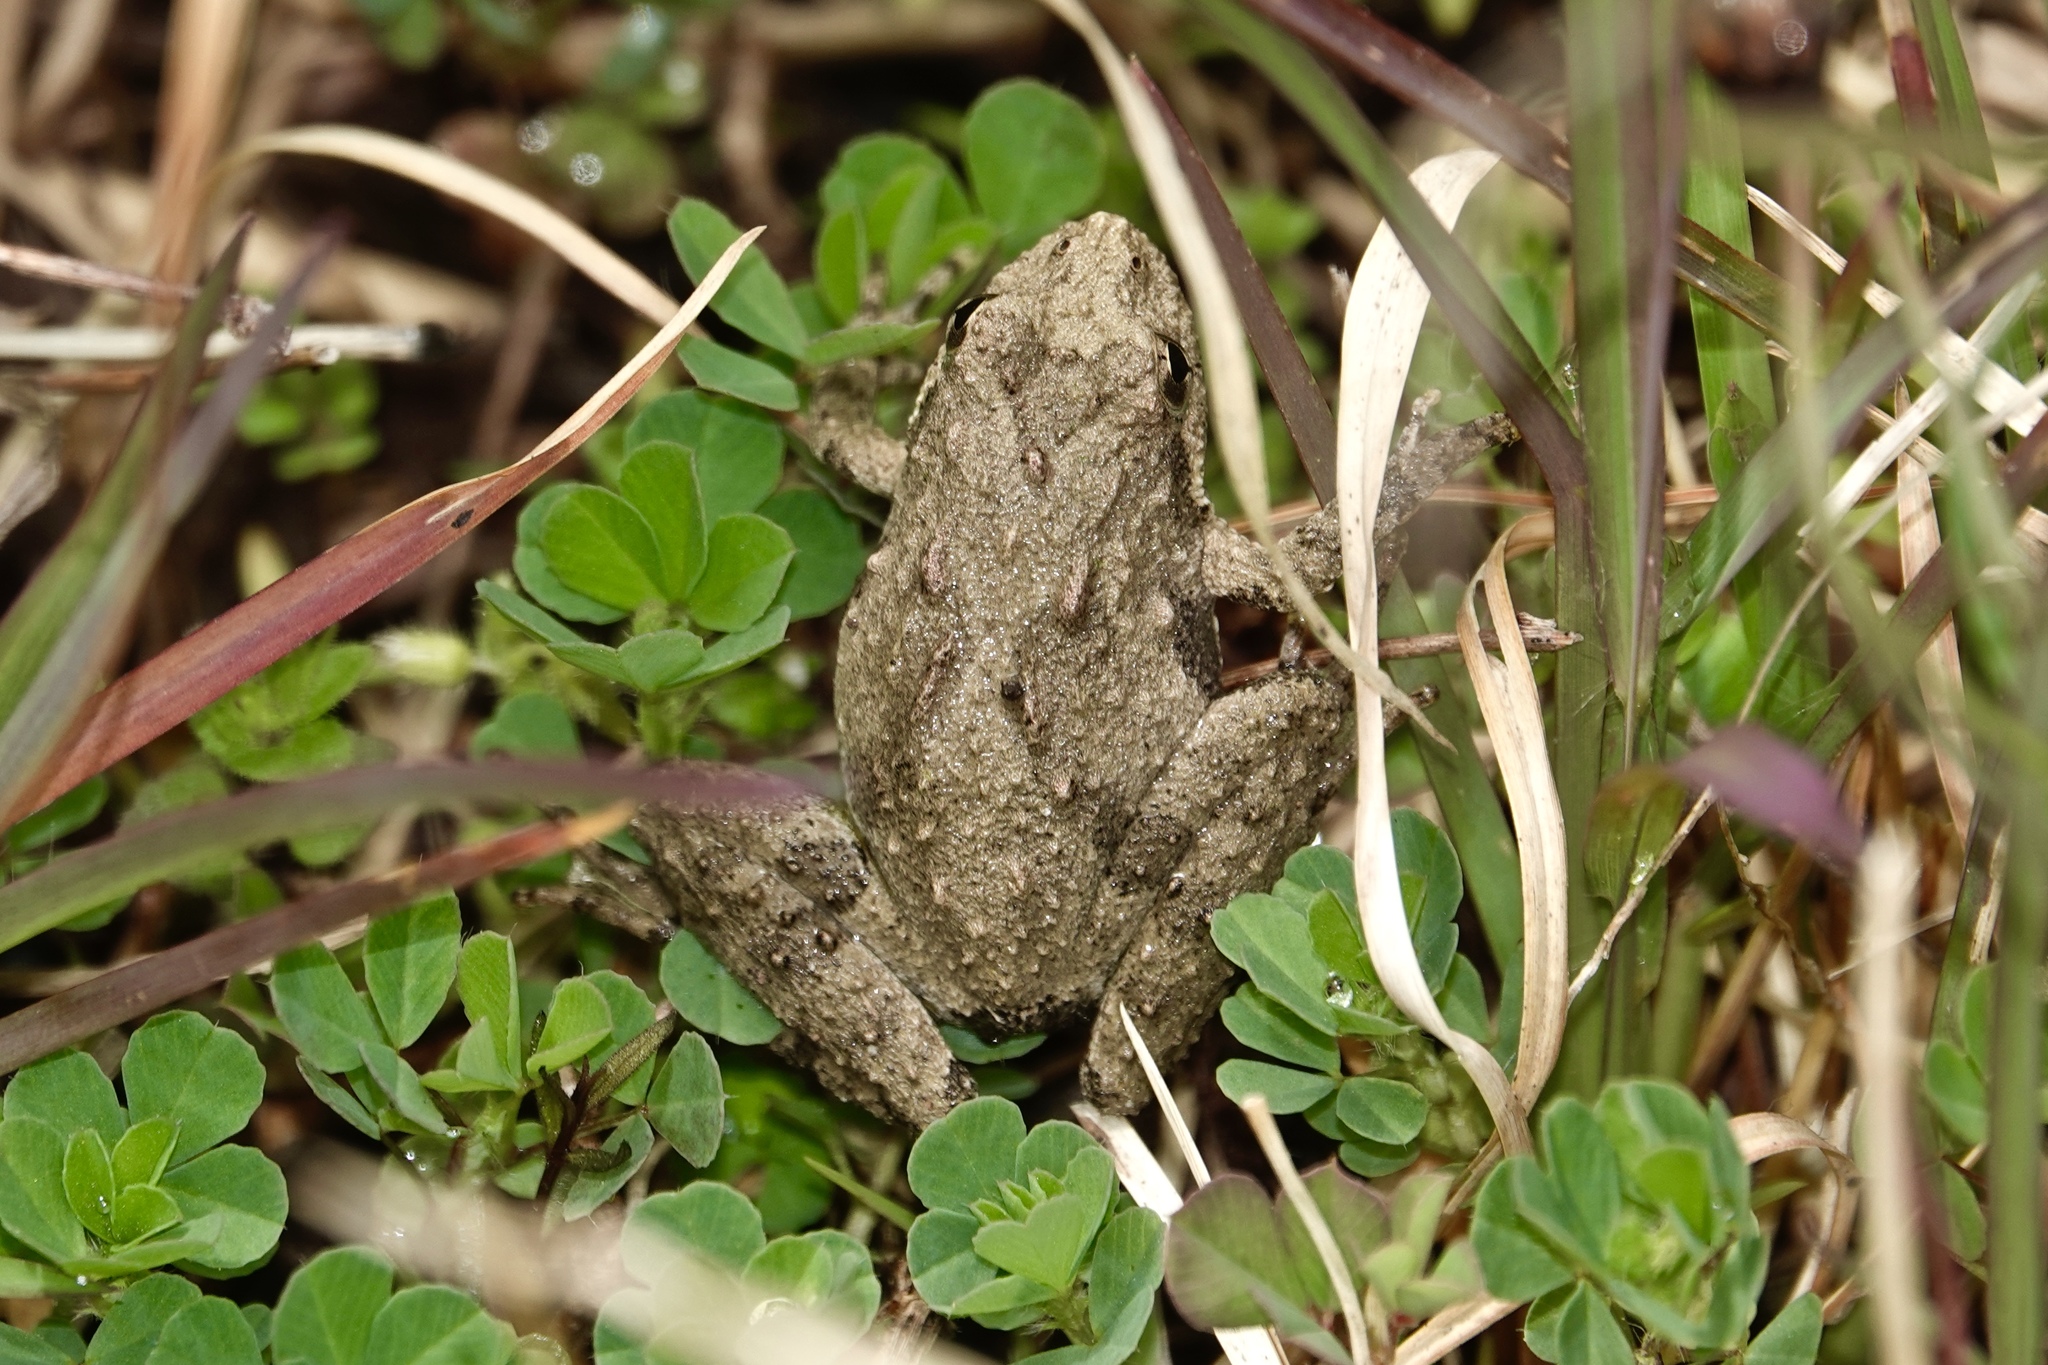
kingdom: Animalia
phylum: Chordata
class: Amphibia
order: Anura
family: Hylidae
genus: Acris
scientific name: Acris crepitans
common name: Northern cricket frog
